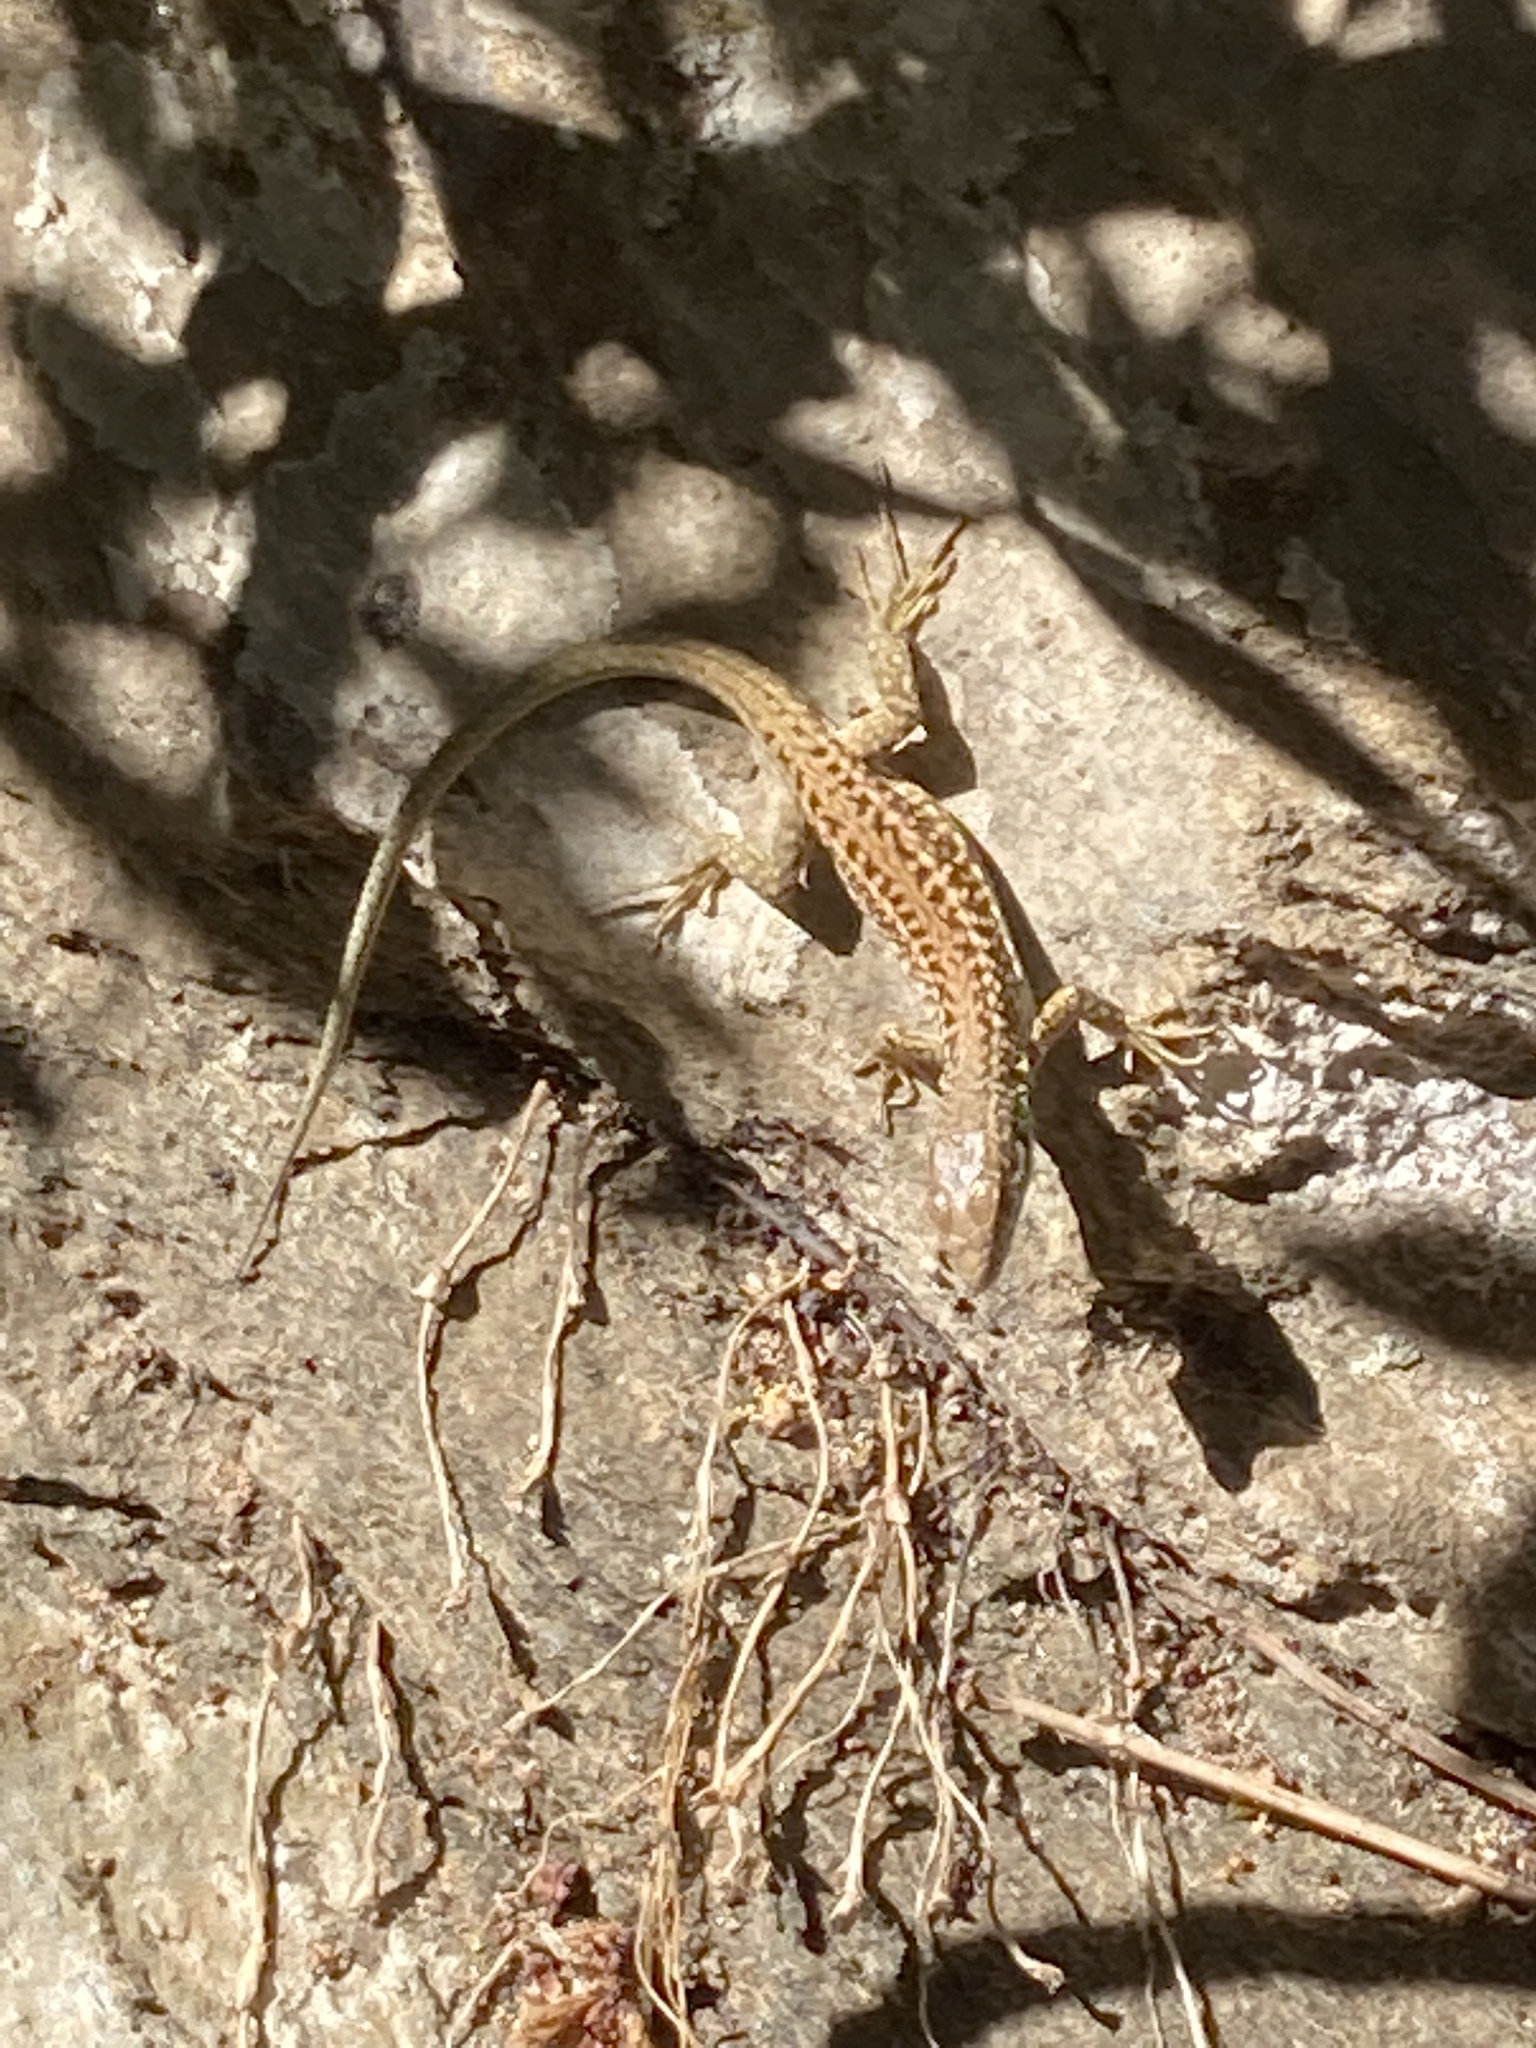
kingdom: Animalia
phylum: Chordata
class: Squamata
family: Lacertidae
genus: Podarcis
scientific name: Podarcis erhardii
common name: Erhard's wall lizard
